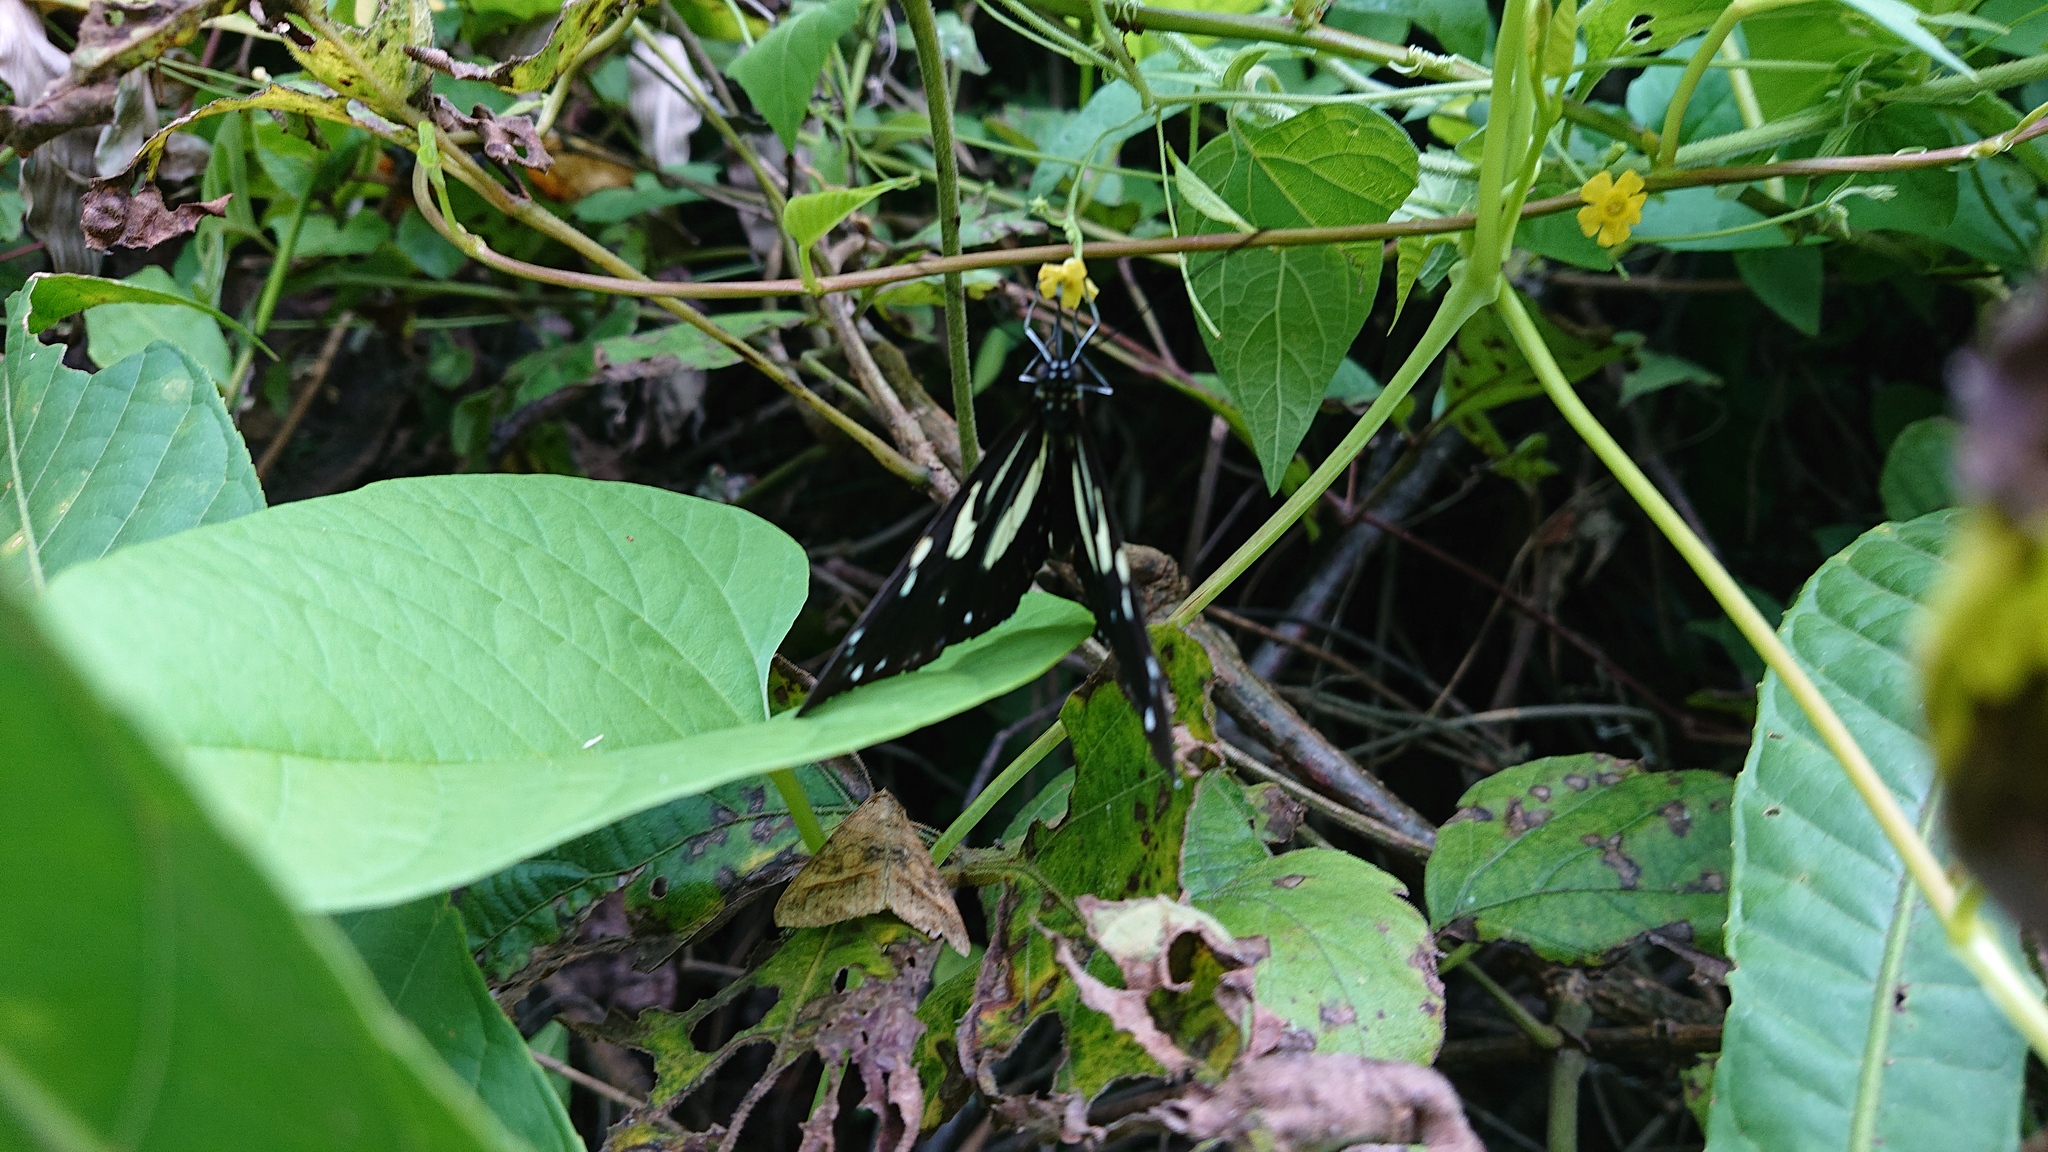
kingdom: Animalia
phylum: Arthropoda
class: Insecta
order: Lepidoptera
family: Nymphalidae
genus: Heliconius
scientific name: Heliconius atthis
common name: False zebra longwing
